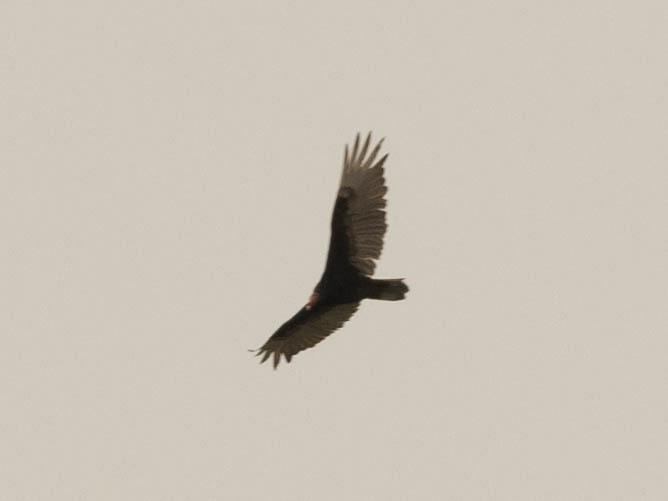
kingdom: Animalia
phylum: Chordata
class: Aves
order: Accipitriformes
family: Cathartidae
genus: Cathartes
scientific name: Cathartes aura
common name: Turkey vulture
